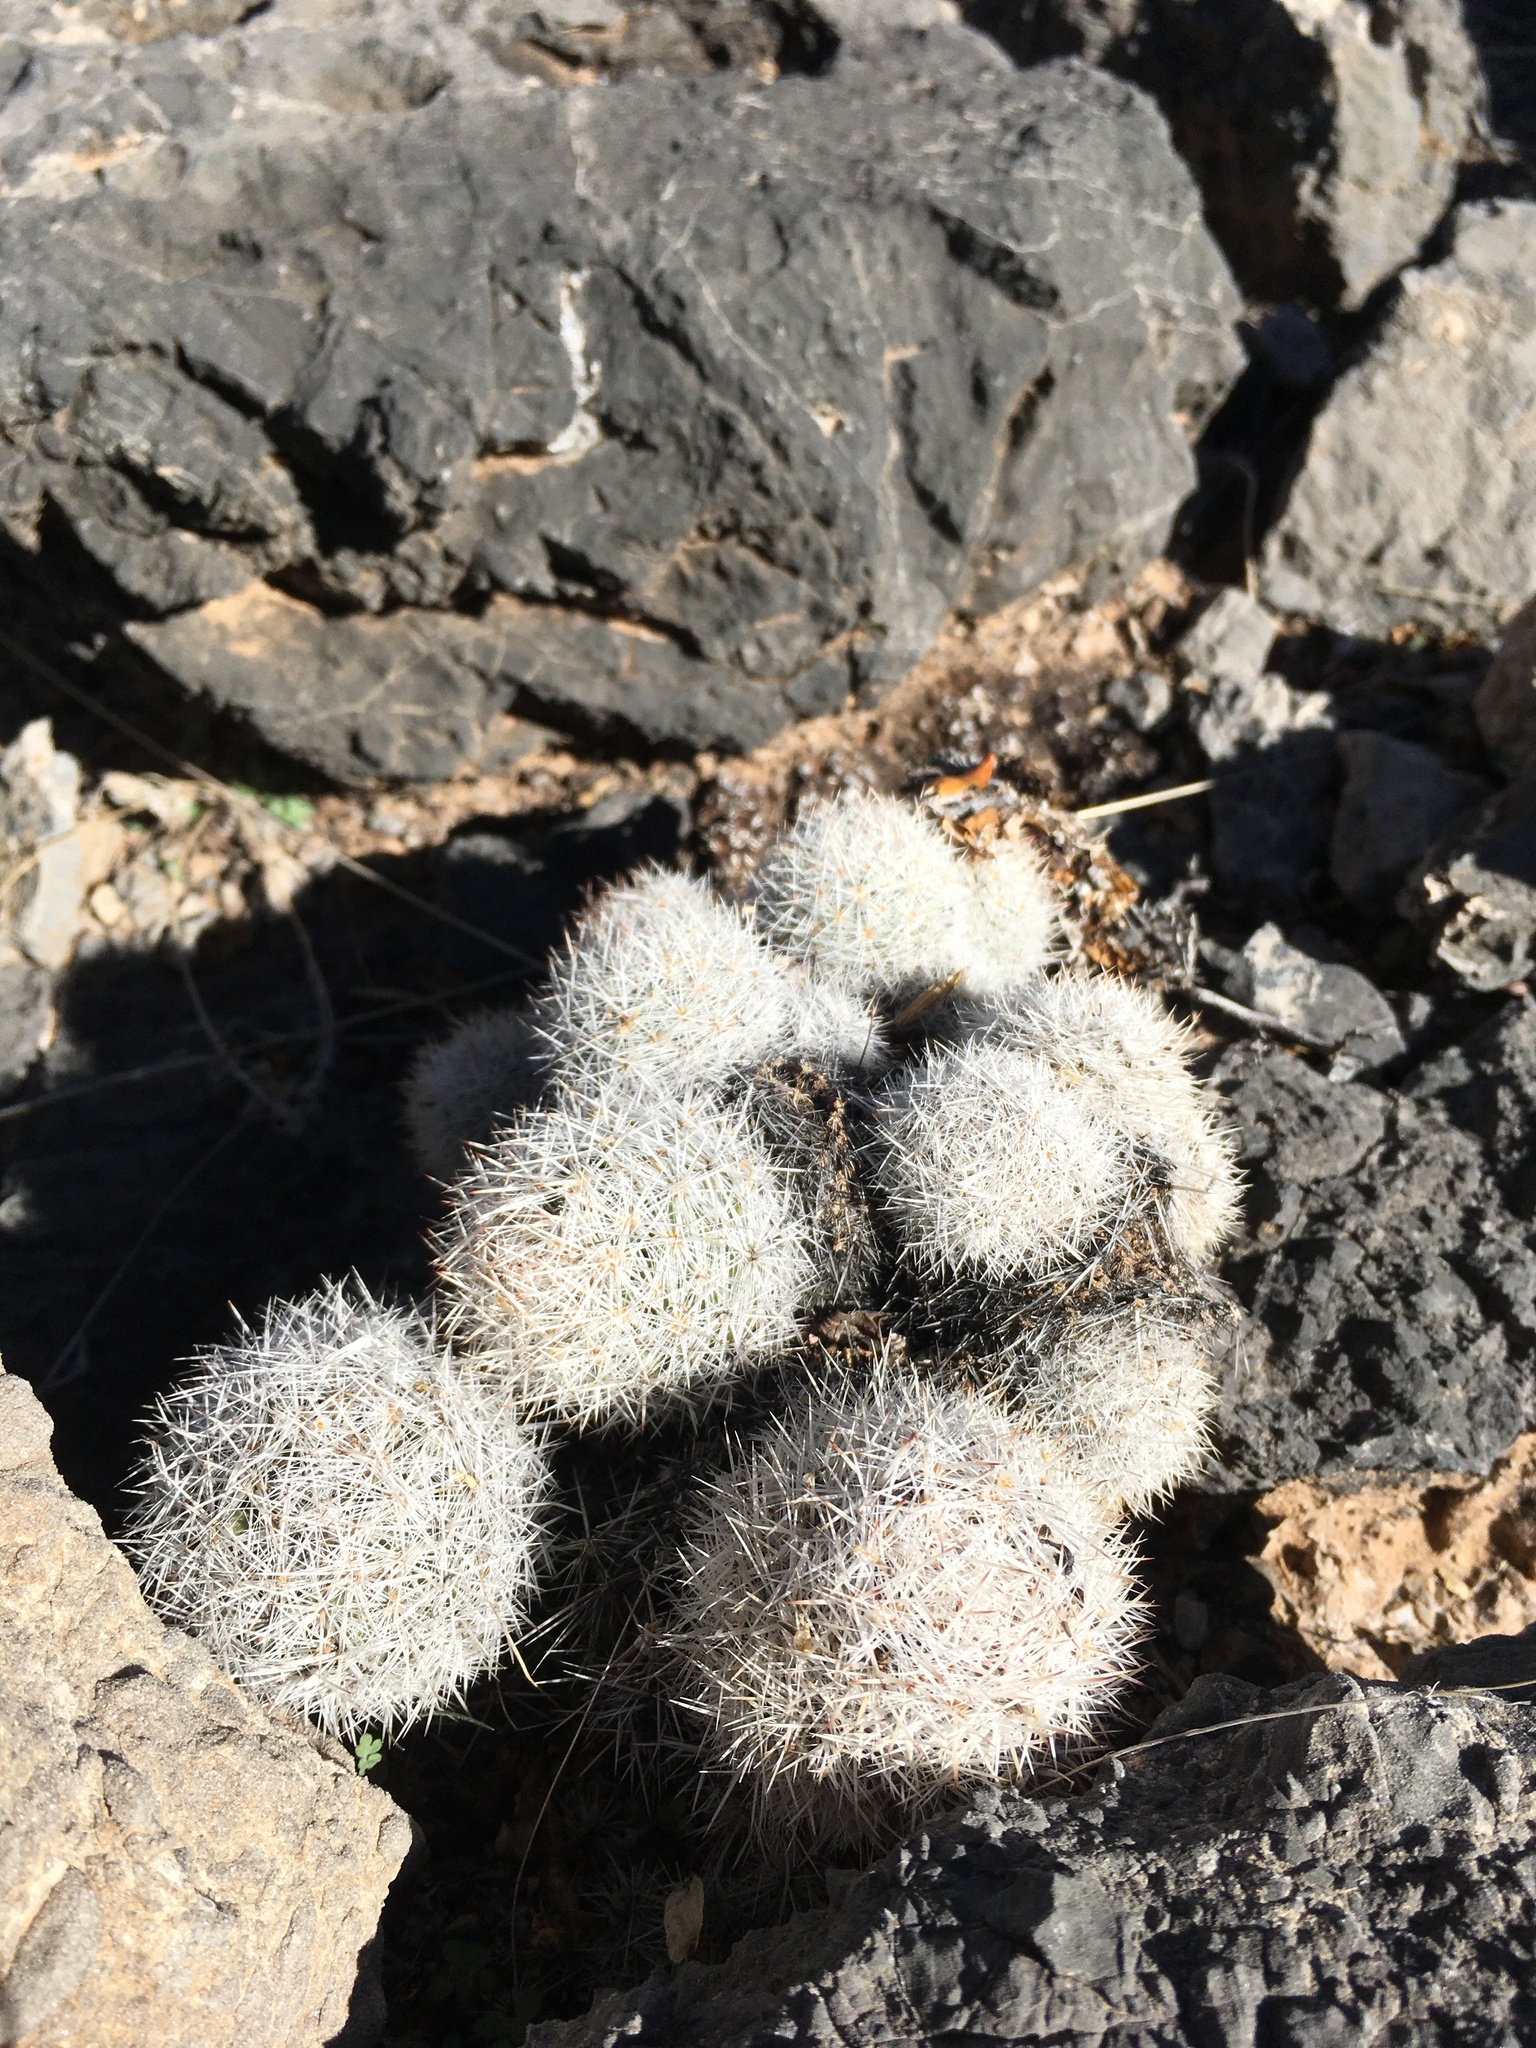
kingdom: Plantae
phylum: Tracheophyta
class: Magnoliopsida
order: Caryophyllales
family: Cactaceae
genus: Pelecyphora
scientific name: Pelecyphora sneedii
